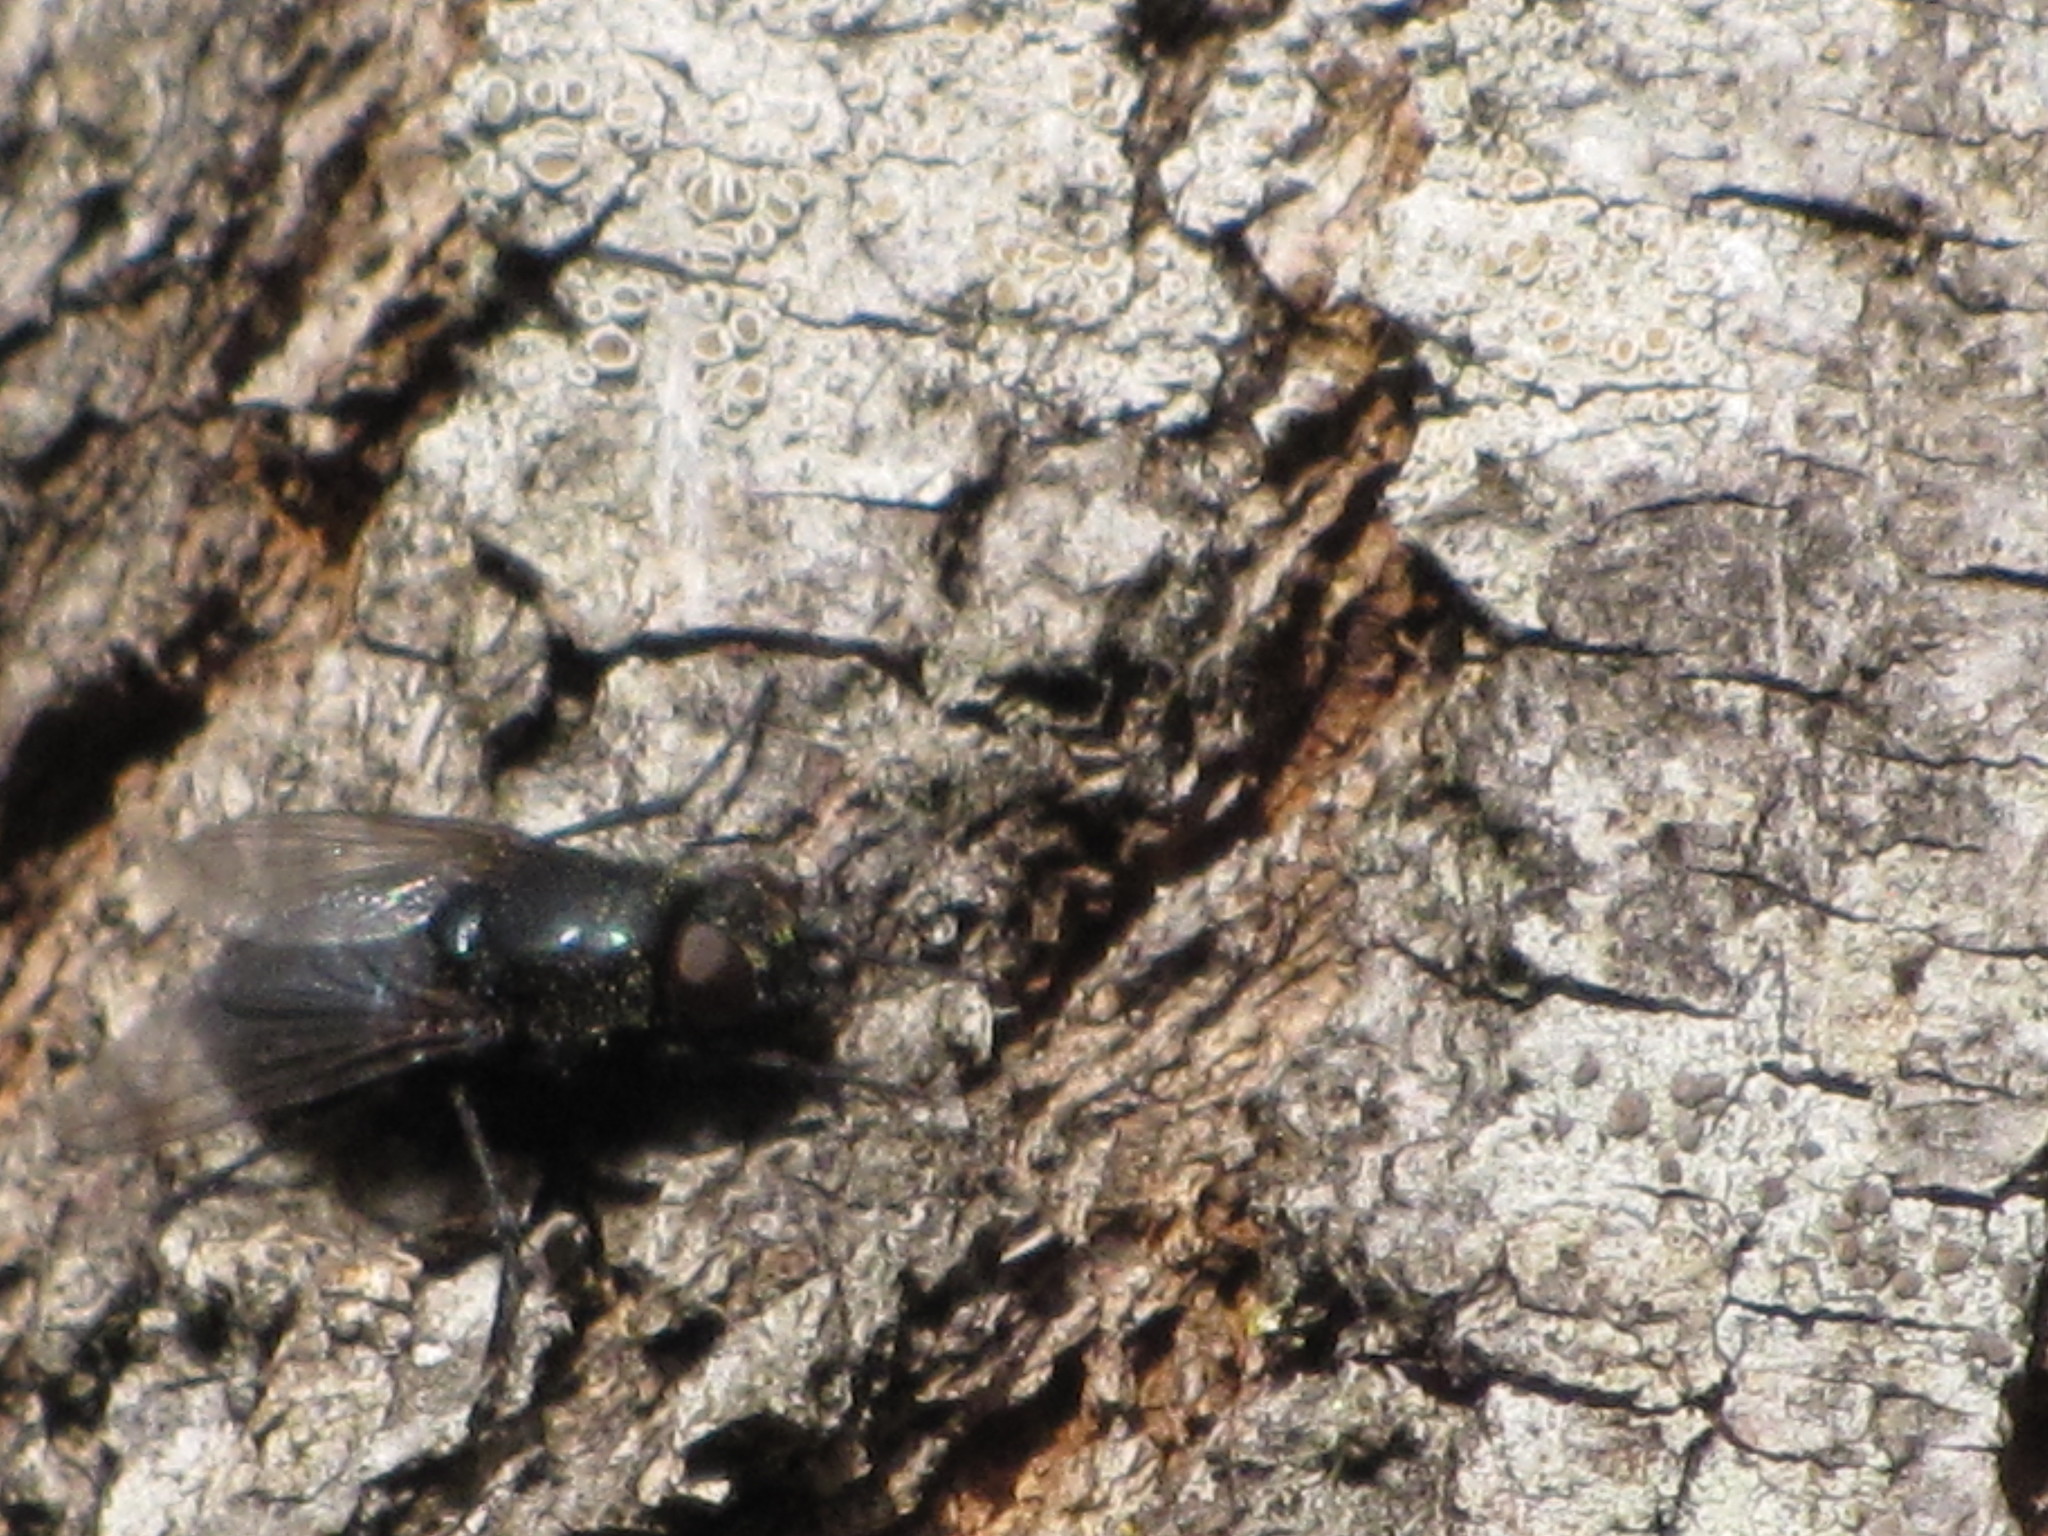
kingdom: Animalia
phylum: Arthropoda
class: Insecta
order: Diptera
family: Calliphoridae
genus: Phormia
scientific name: Phormia regina
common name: Black blow fly
